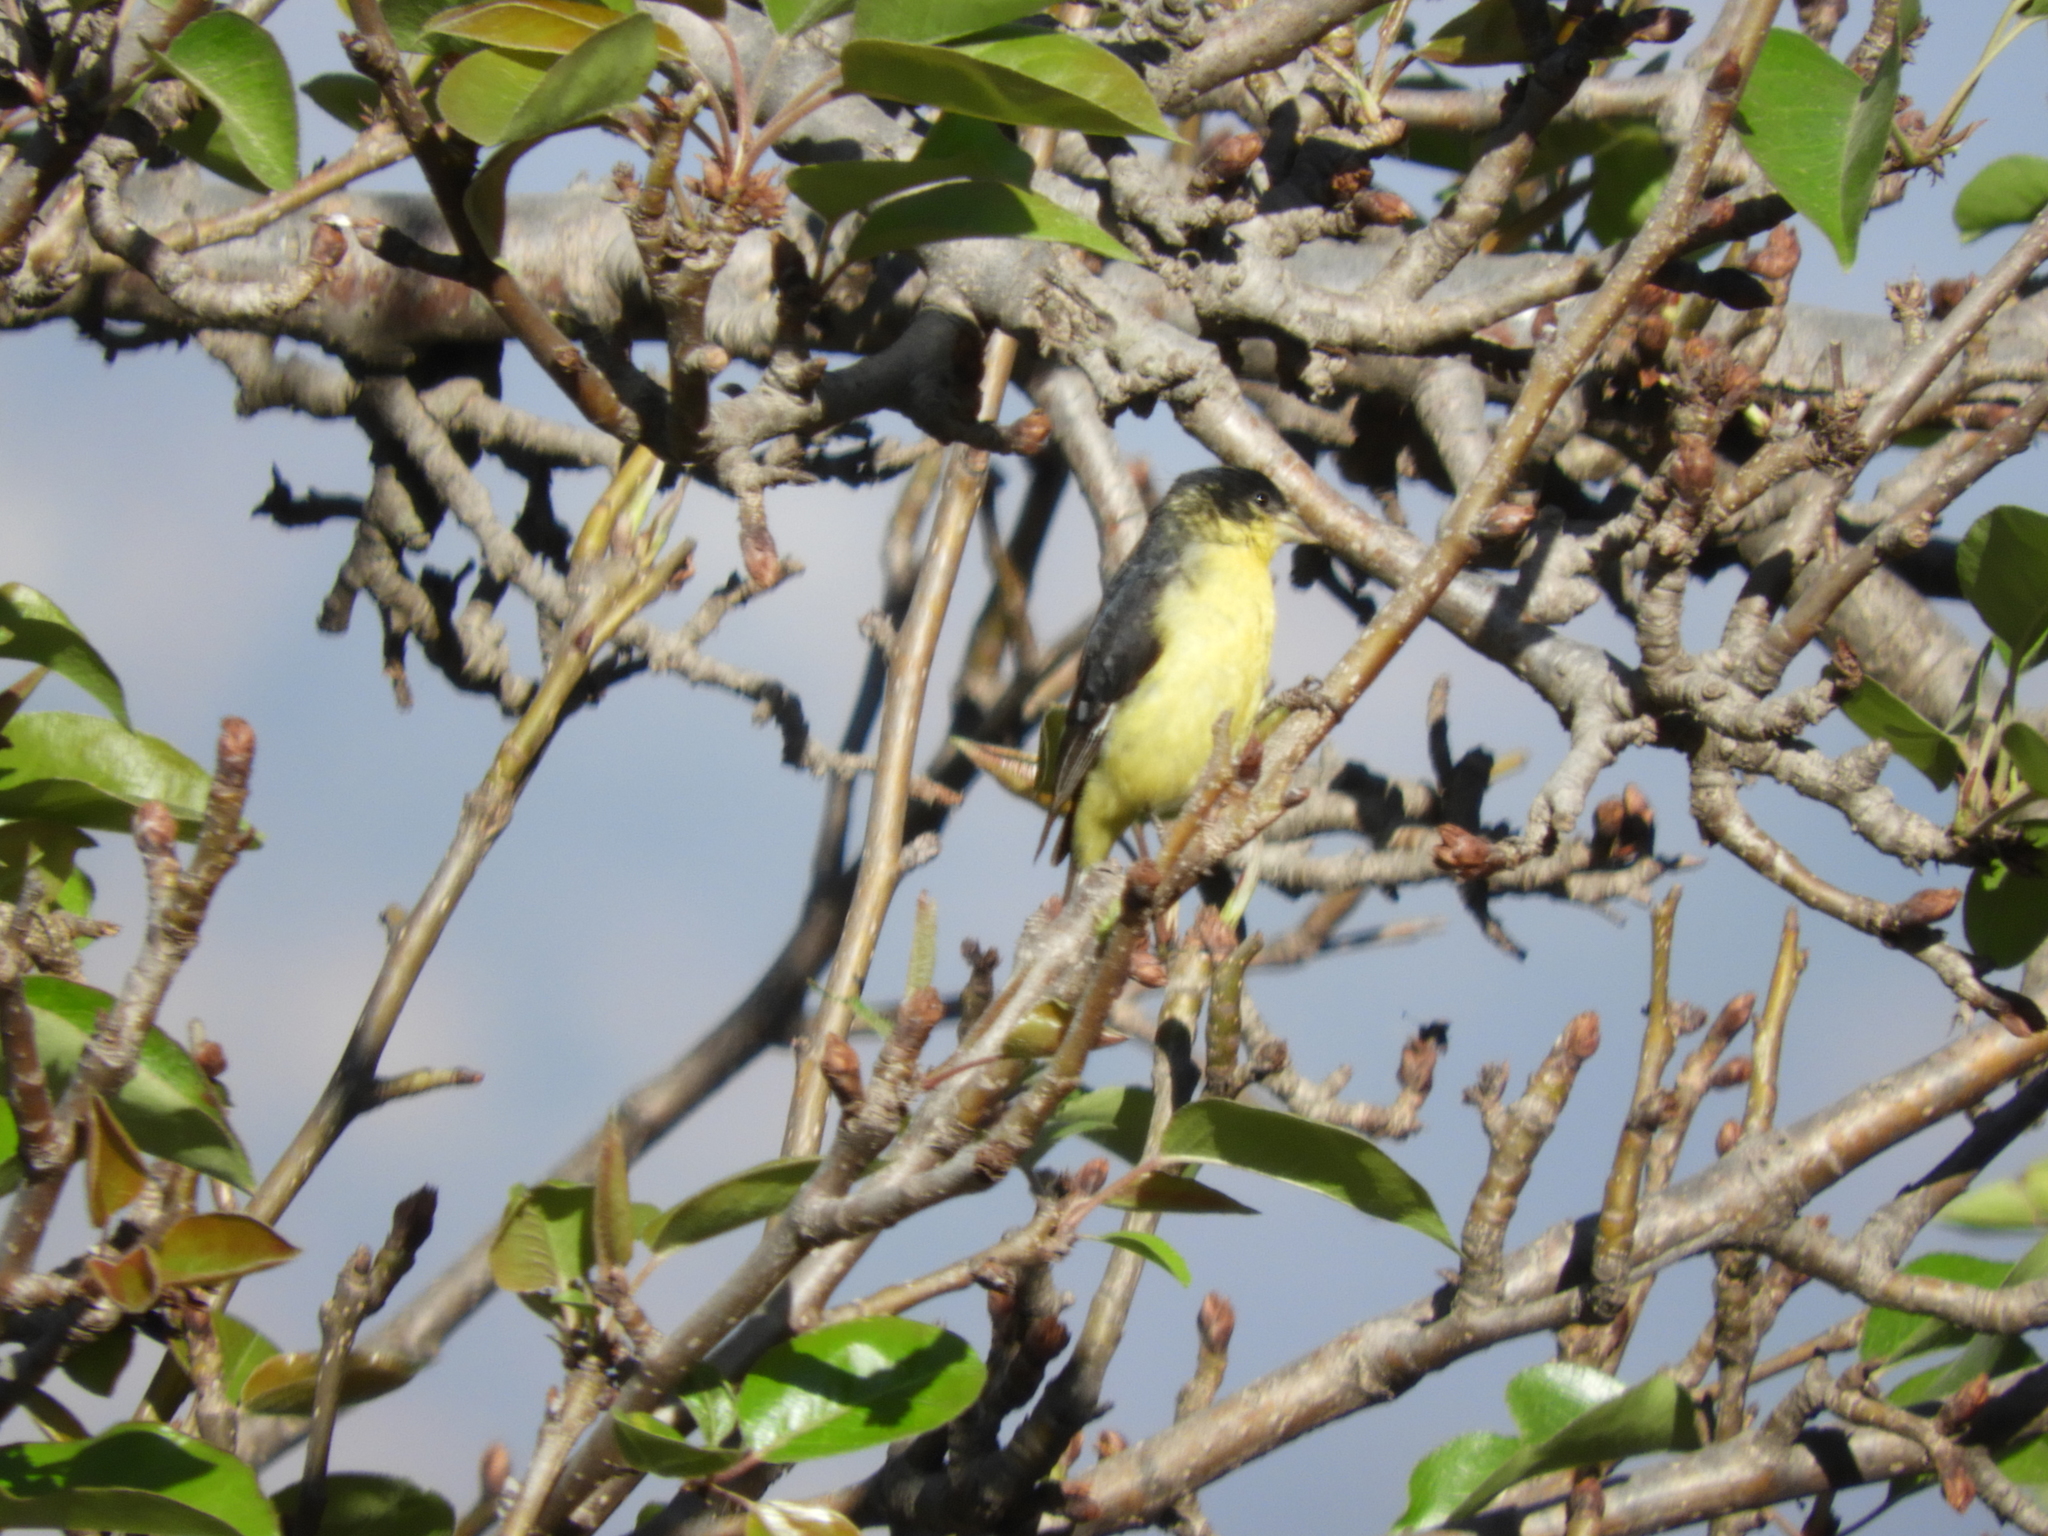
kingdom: Animalia
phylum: Chordata
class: Aves
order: Passeriformes
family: Fringillidae
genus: Spinus
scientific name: Spinus psaltria
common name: Lesser goldfinch
